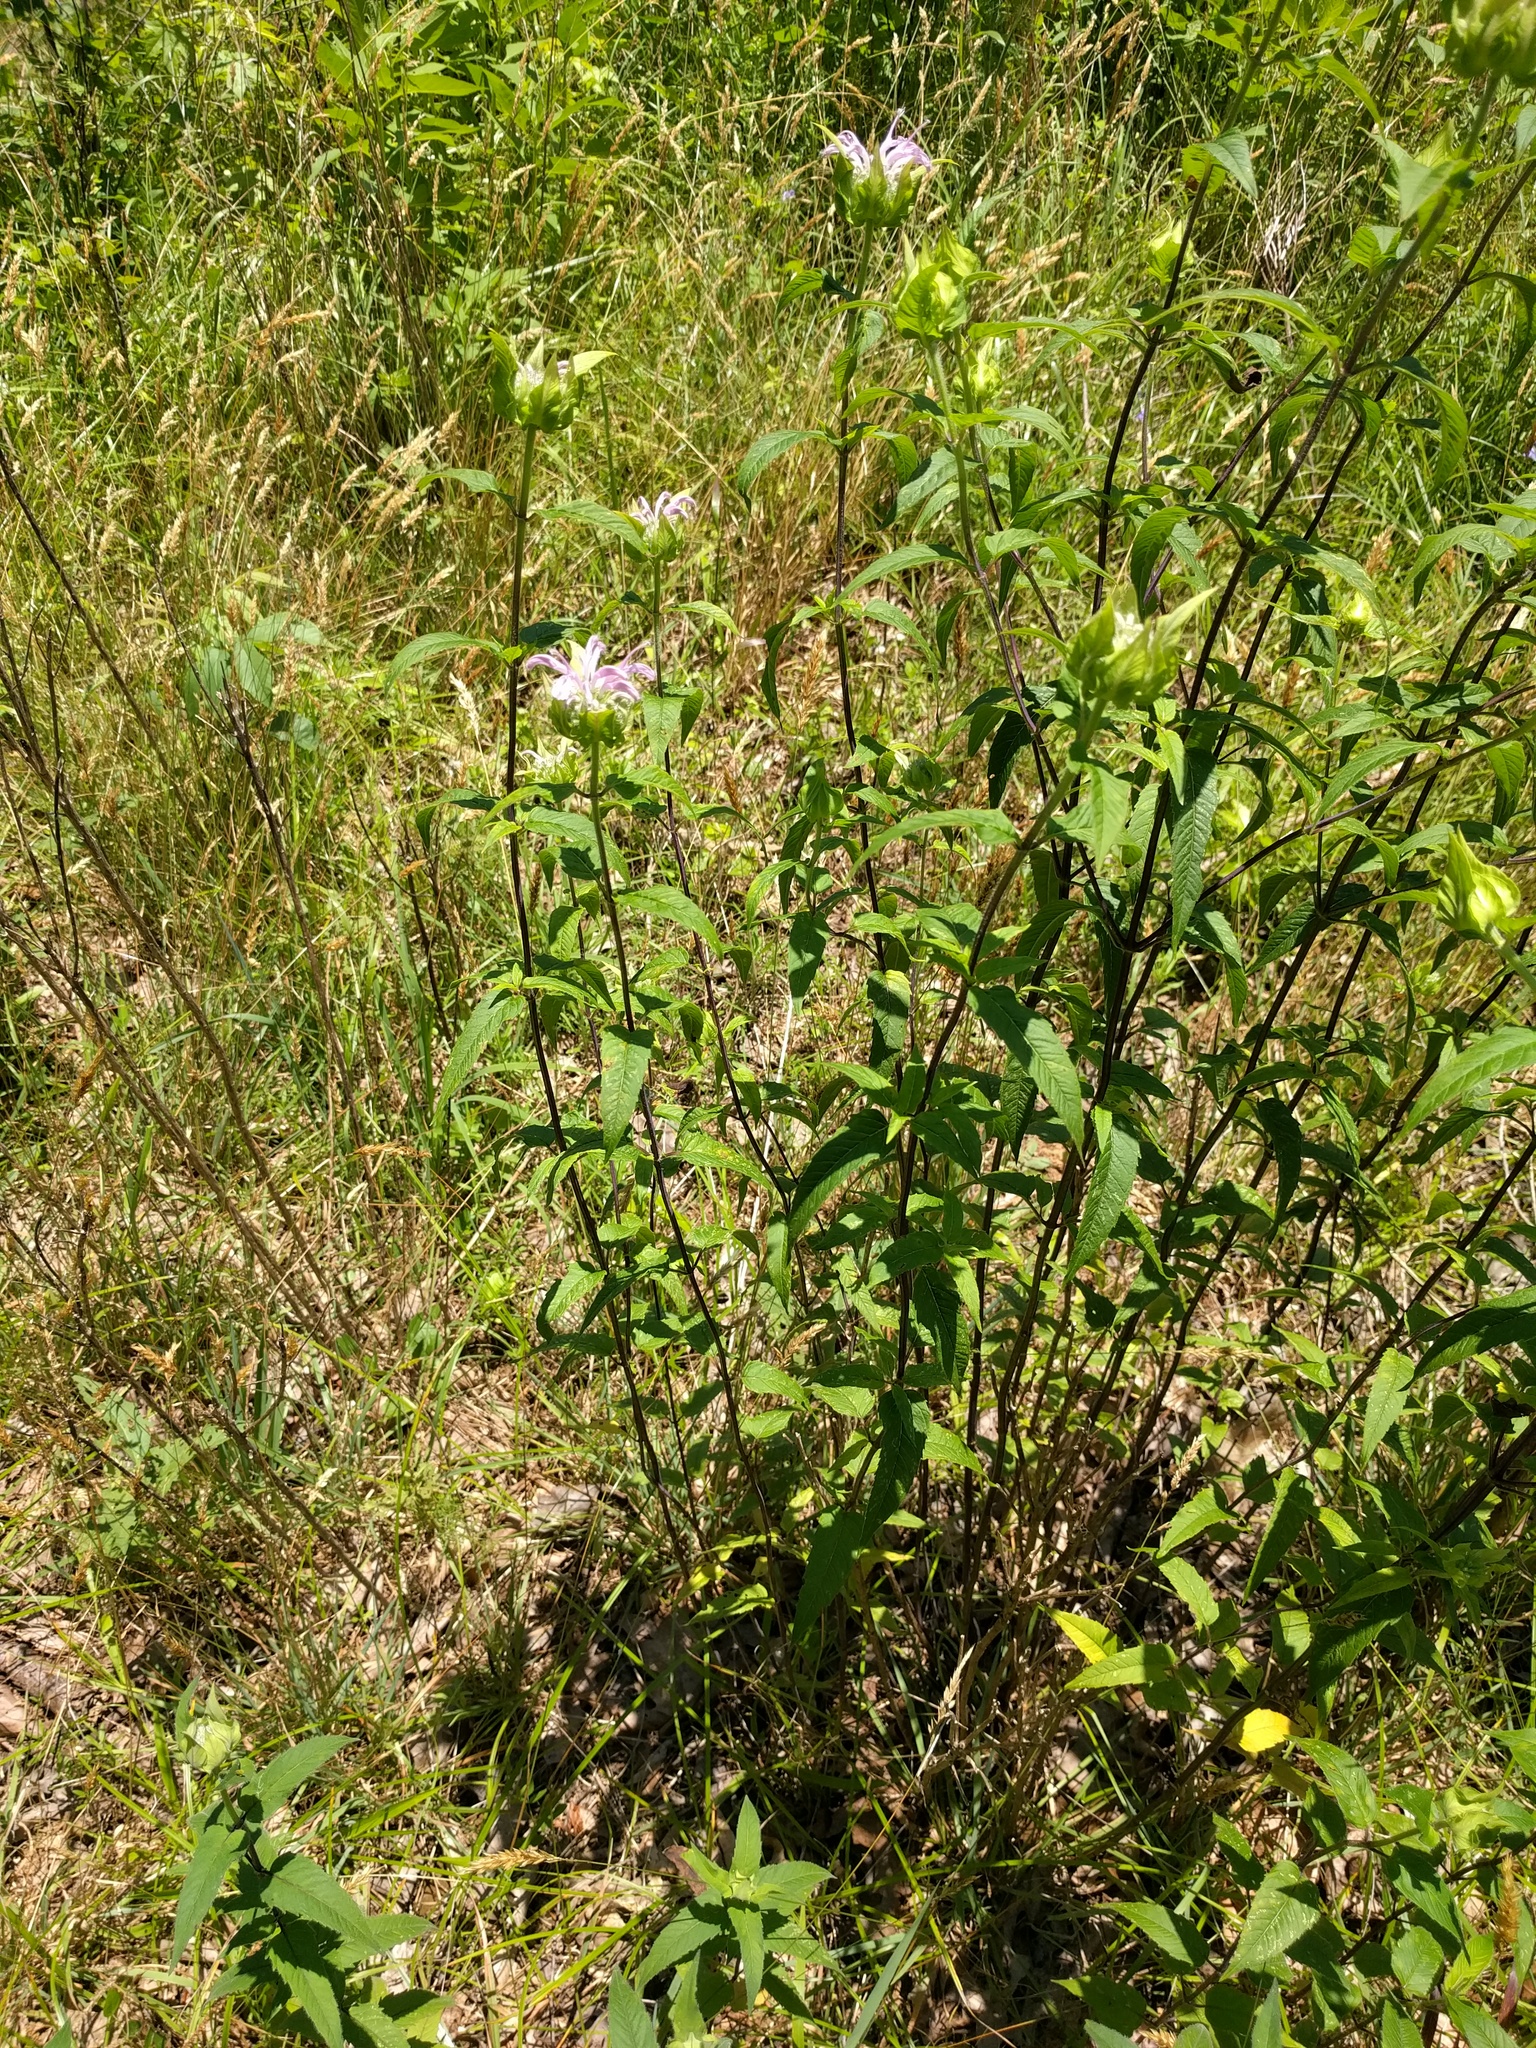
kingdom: Plantae
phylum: Tracheophyta
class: Magnoliopsida
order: Lamiales
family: Lamiaceae
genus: Monarda
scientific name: Monarda fistulosa
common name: Purple beebalm
